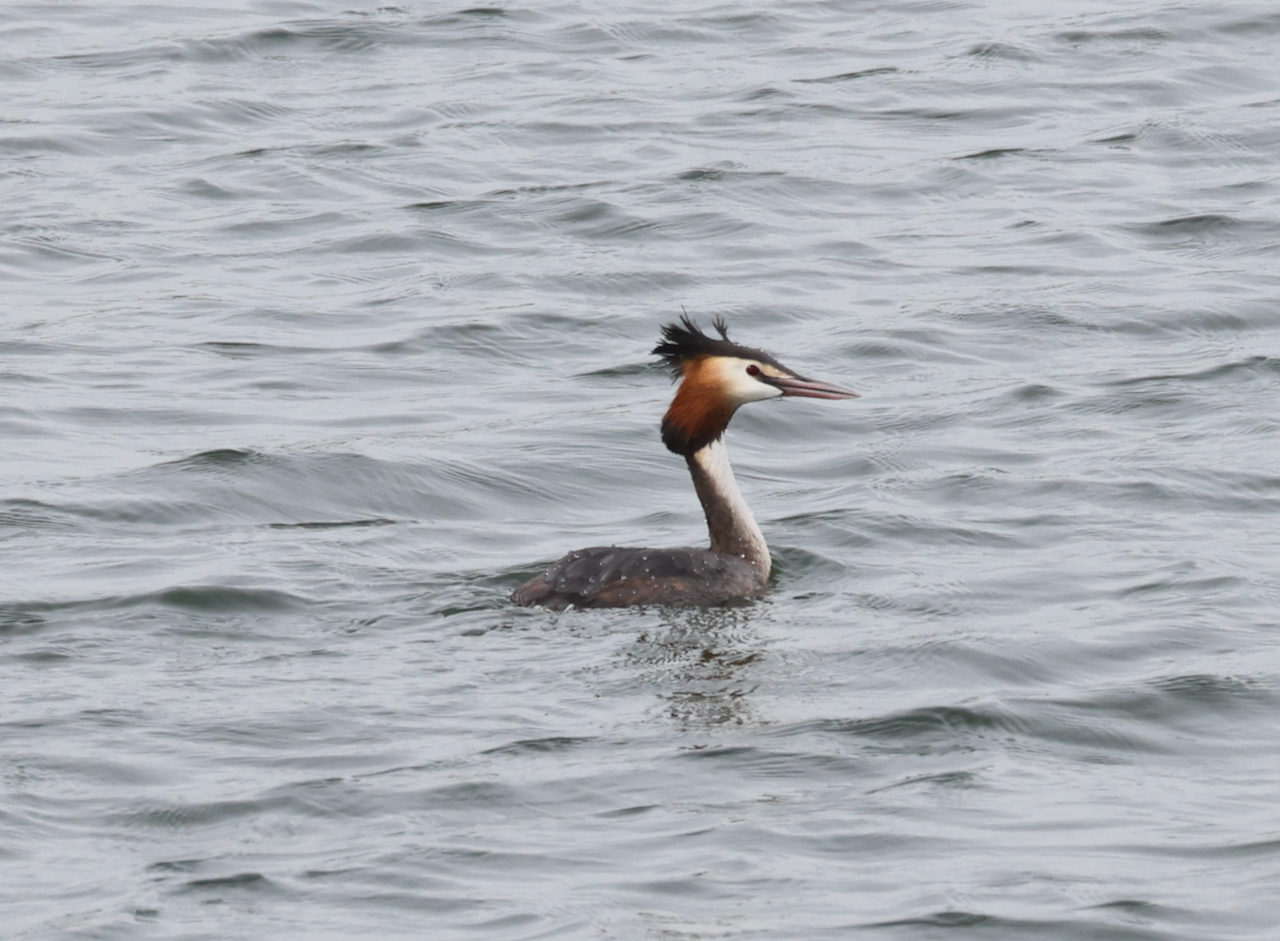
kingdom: Animalia
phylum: Chordata
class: Aves
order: Podicipediformes
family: Podicipedidae
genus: Podiceps
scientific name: Podiceps cristatus
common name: Great crested grebe
